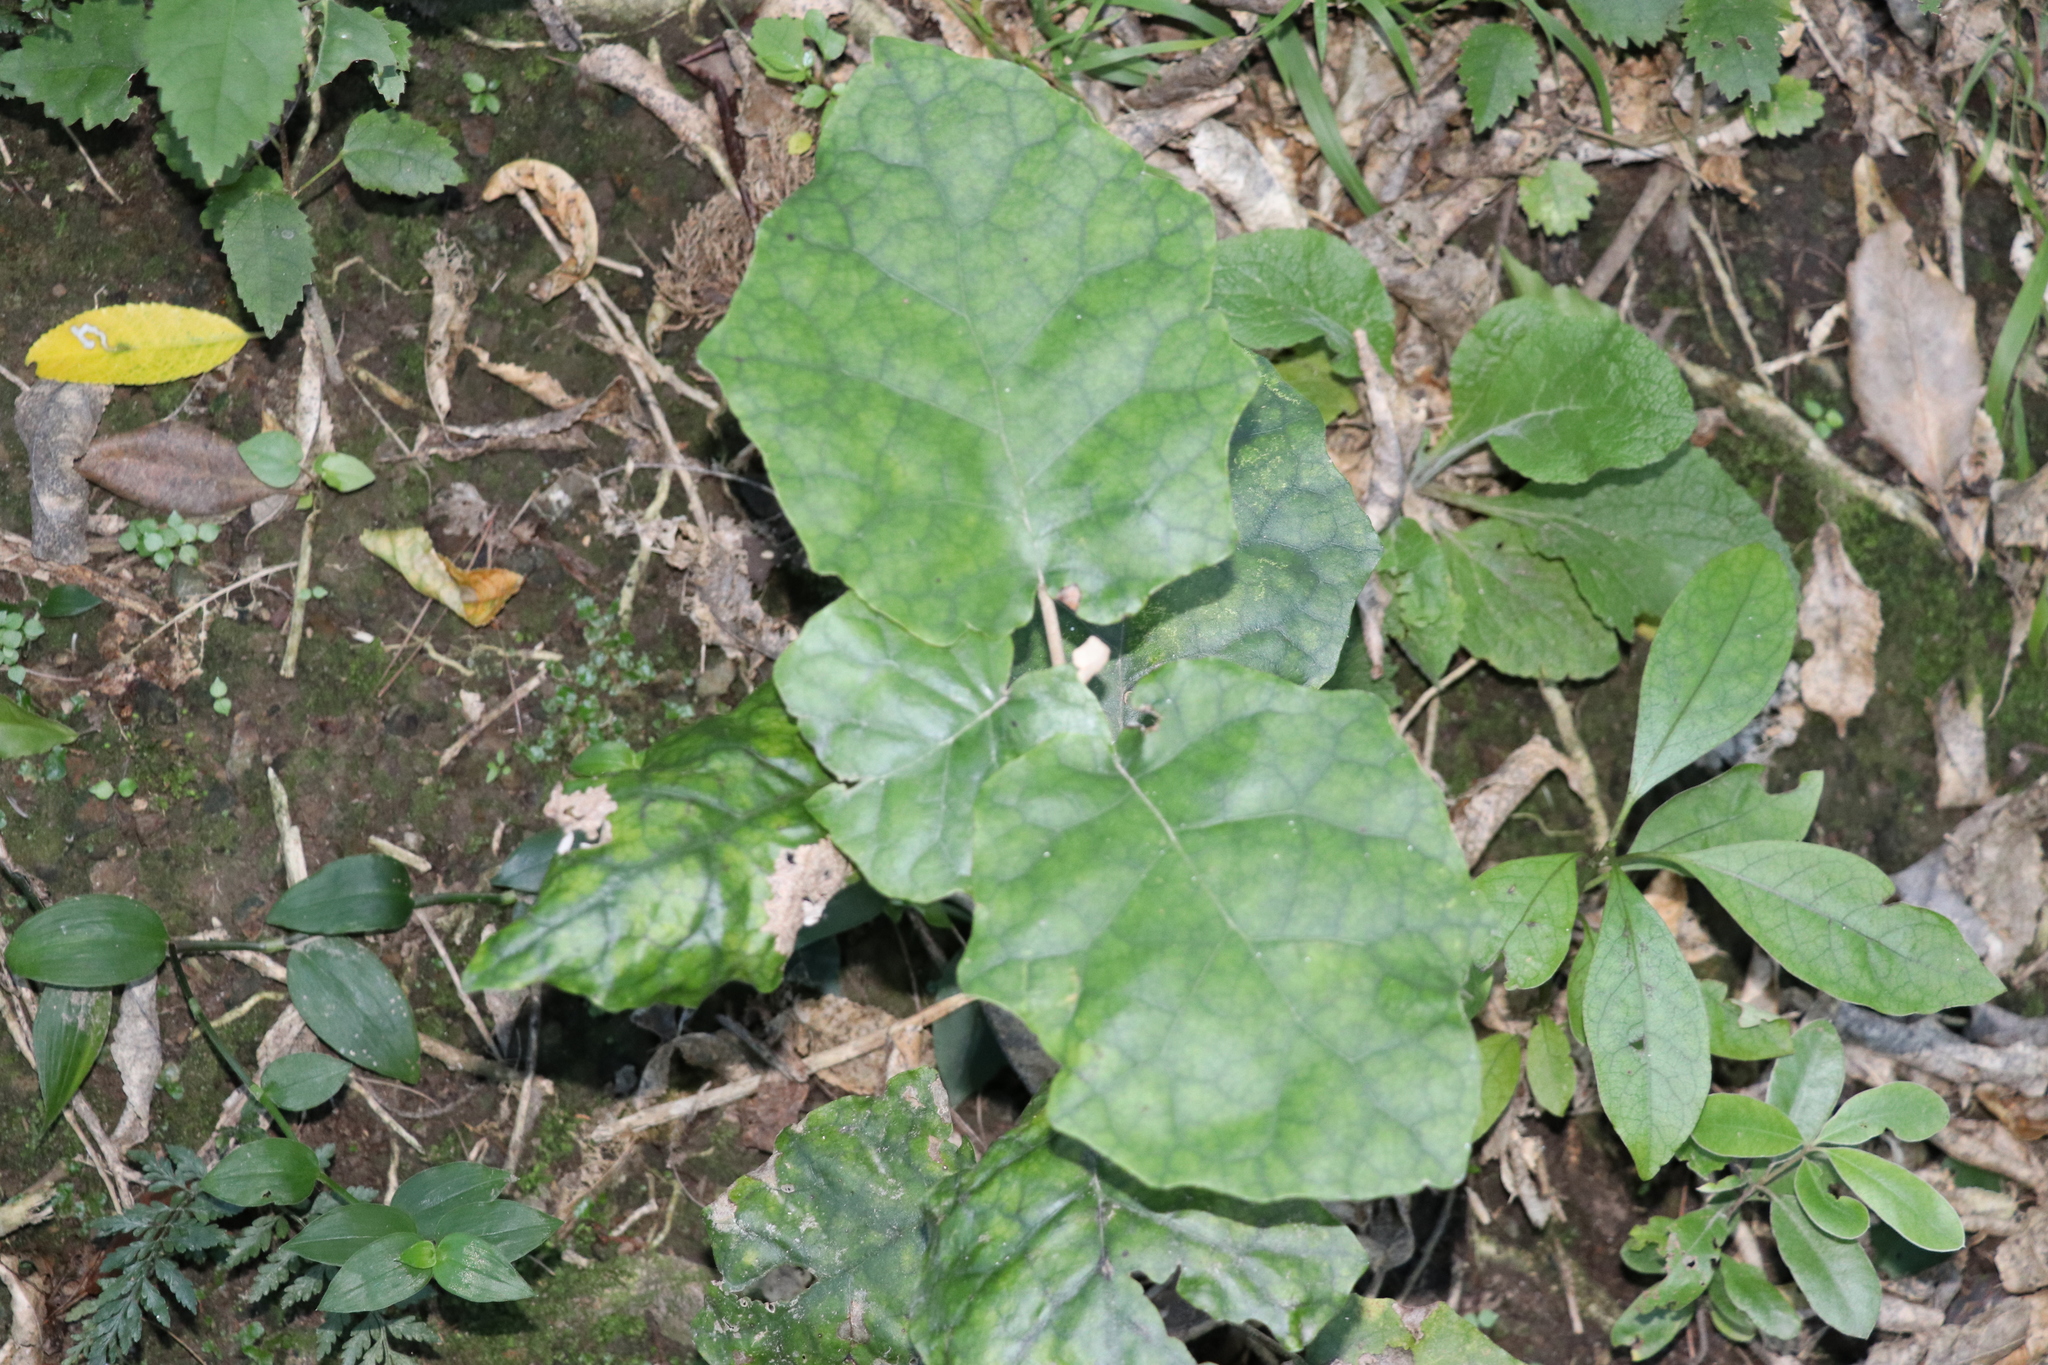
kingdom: Plantae
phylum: Tracheophyta
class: Magnoliopsida
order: Asterales
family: Asteraceae
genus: Brachyglottis
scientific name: Brachyglottis repanda
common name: Hedge ragwort
